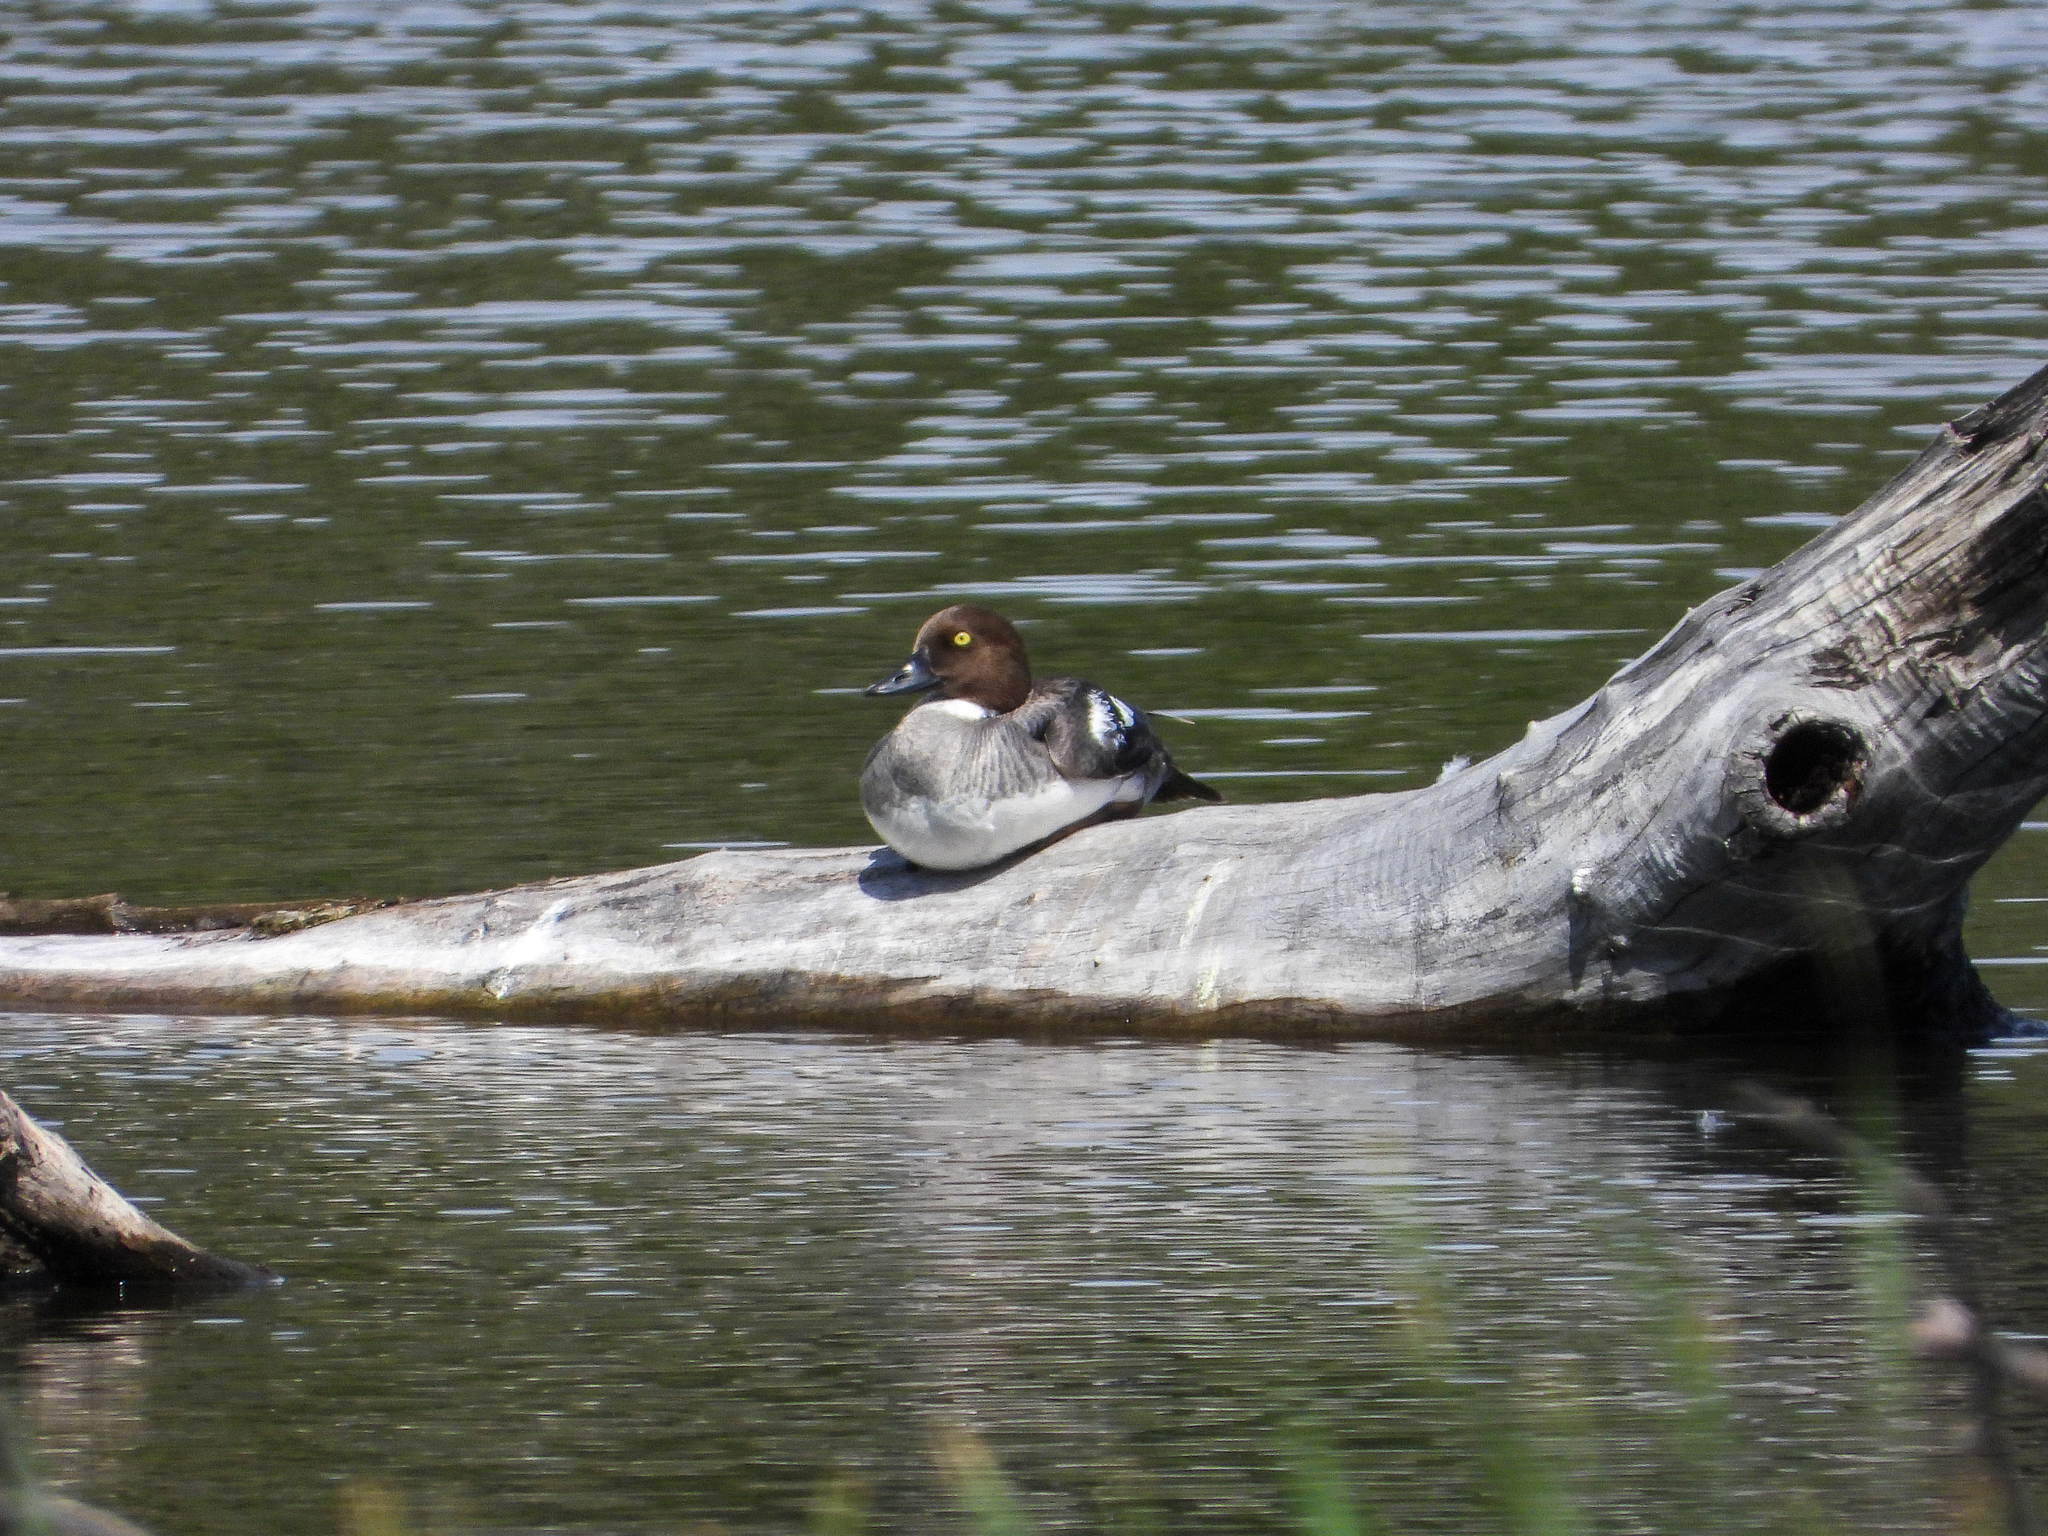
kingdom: Animalia
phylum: Chordata
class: Aves
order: Anseriformes
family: Anatidae
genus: Bucephala
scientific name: Bucephala clangula
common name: Common goldeneye
